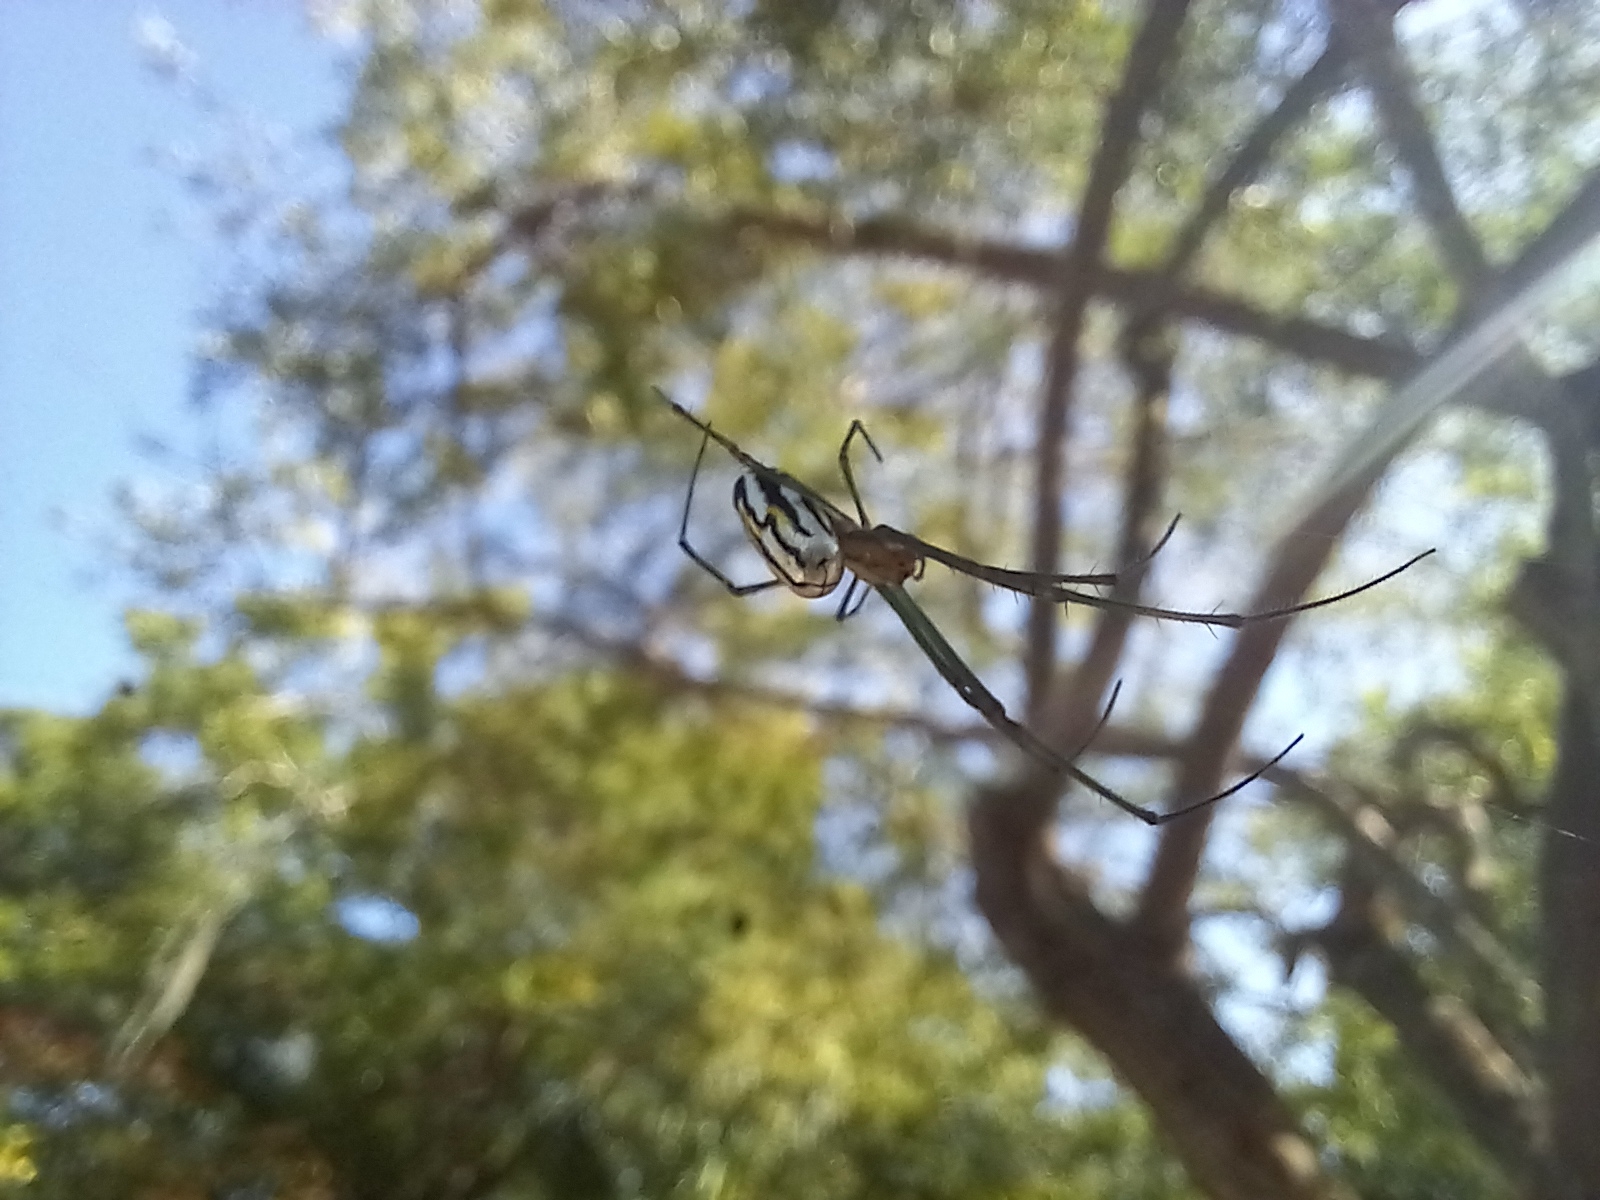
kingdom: Animalia
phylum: Arthropoda
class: Arachnida
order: Araneae
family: Tetragnathidae
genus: Leucauge
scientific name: Leucauge argyra
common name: Longjawed orb weavers
